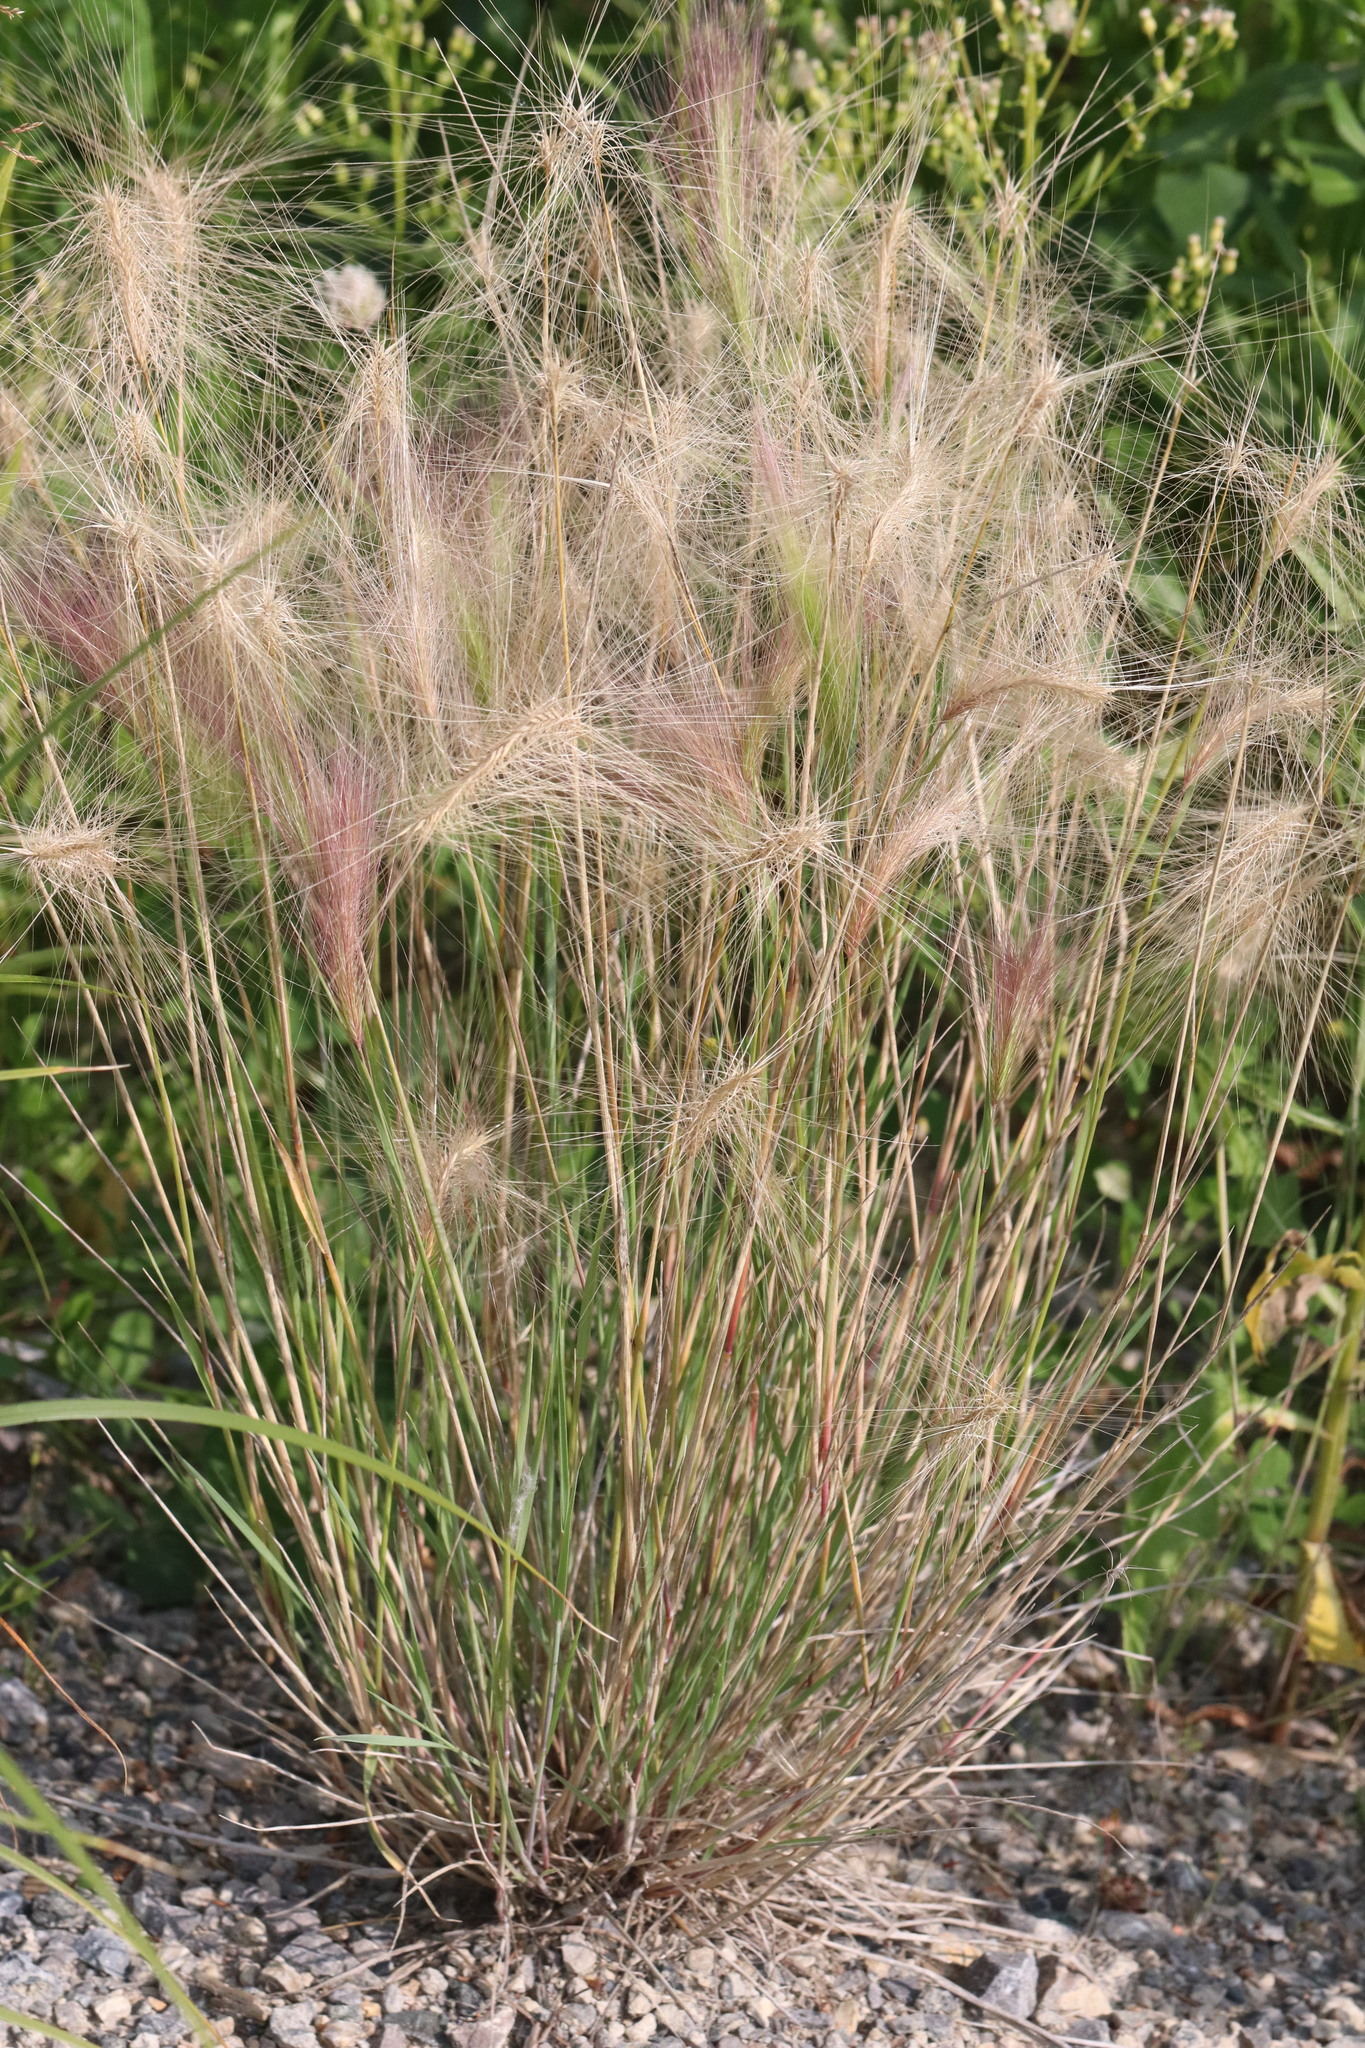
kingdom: Plantae
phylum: Tracheophyta
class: Liliopsida
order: Poales
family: Poaceae
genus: Hordeum
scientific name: Hordeum jubatum
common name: Foxtail barley
